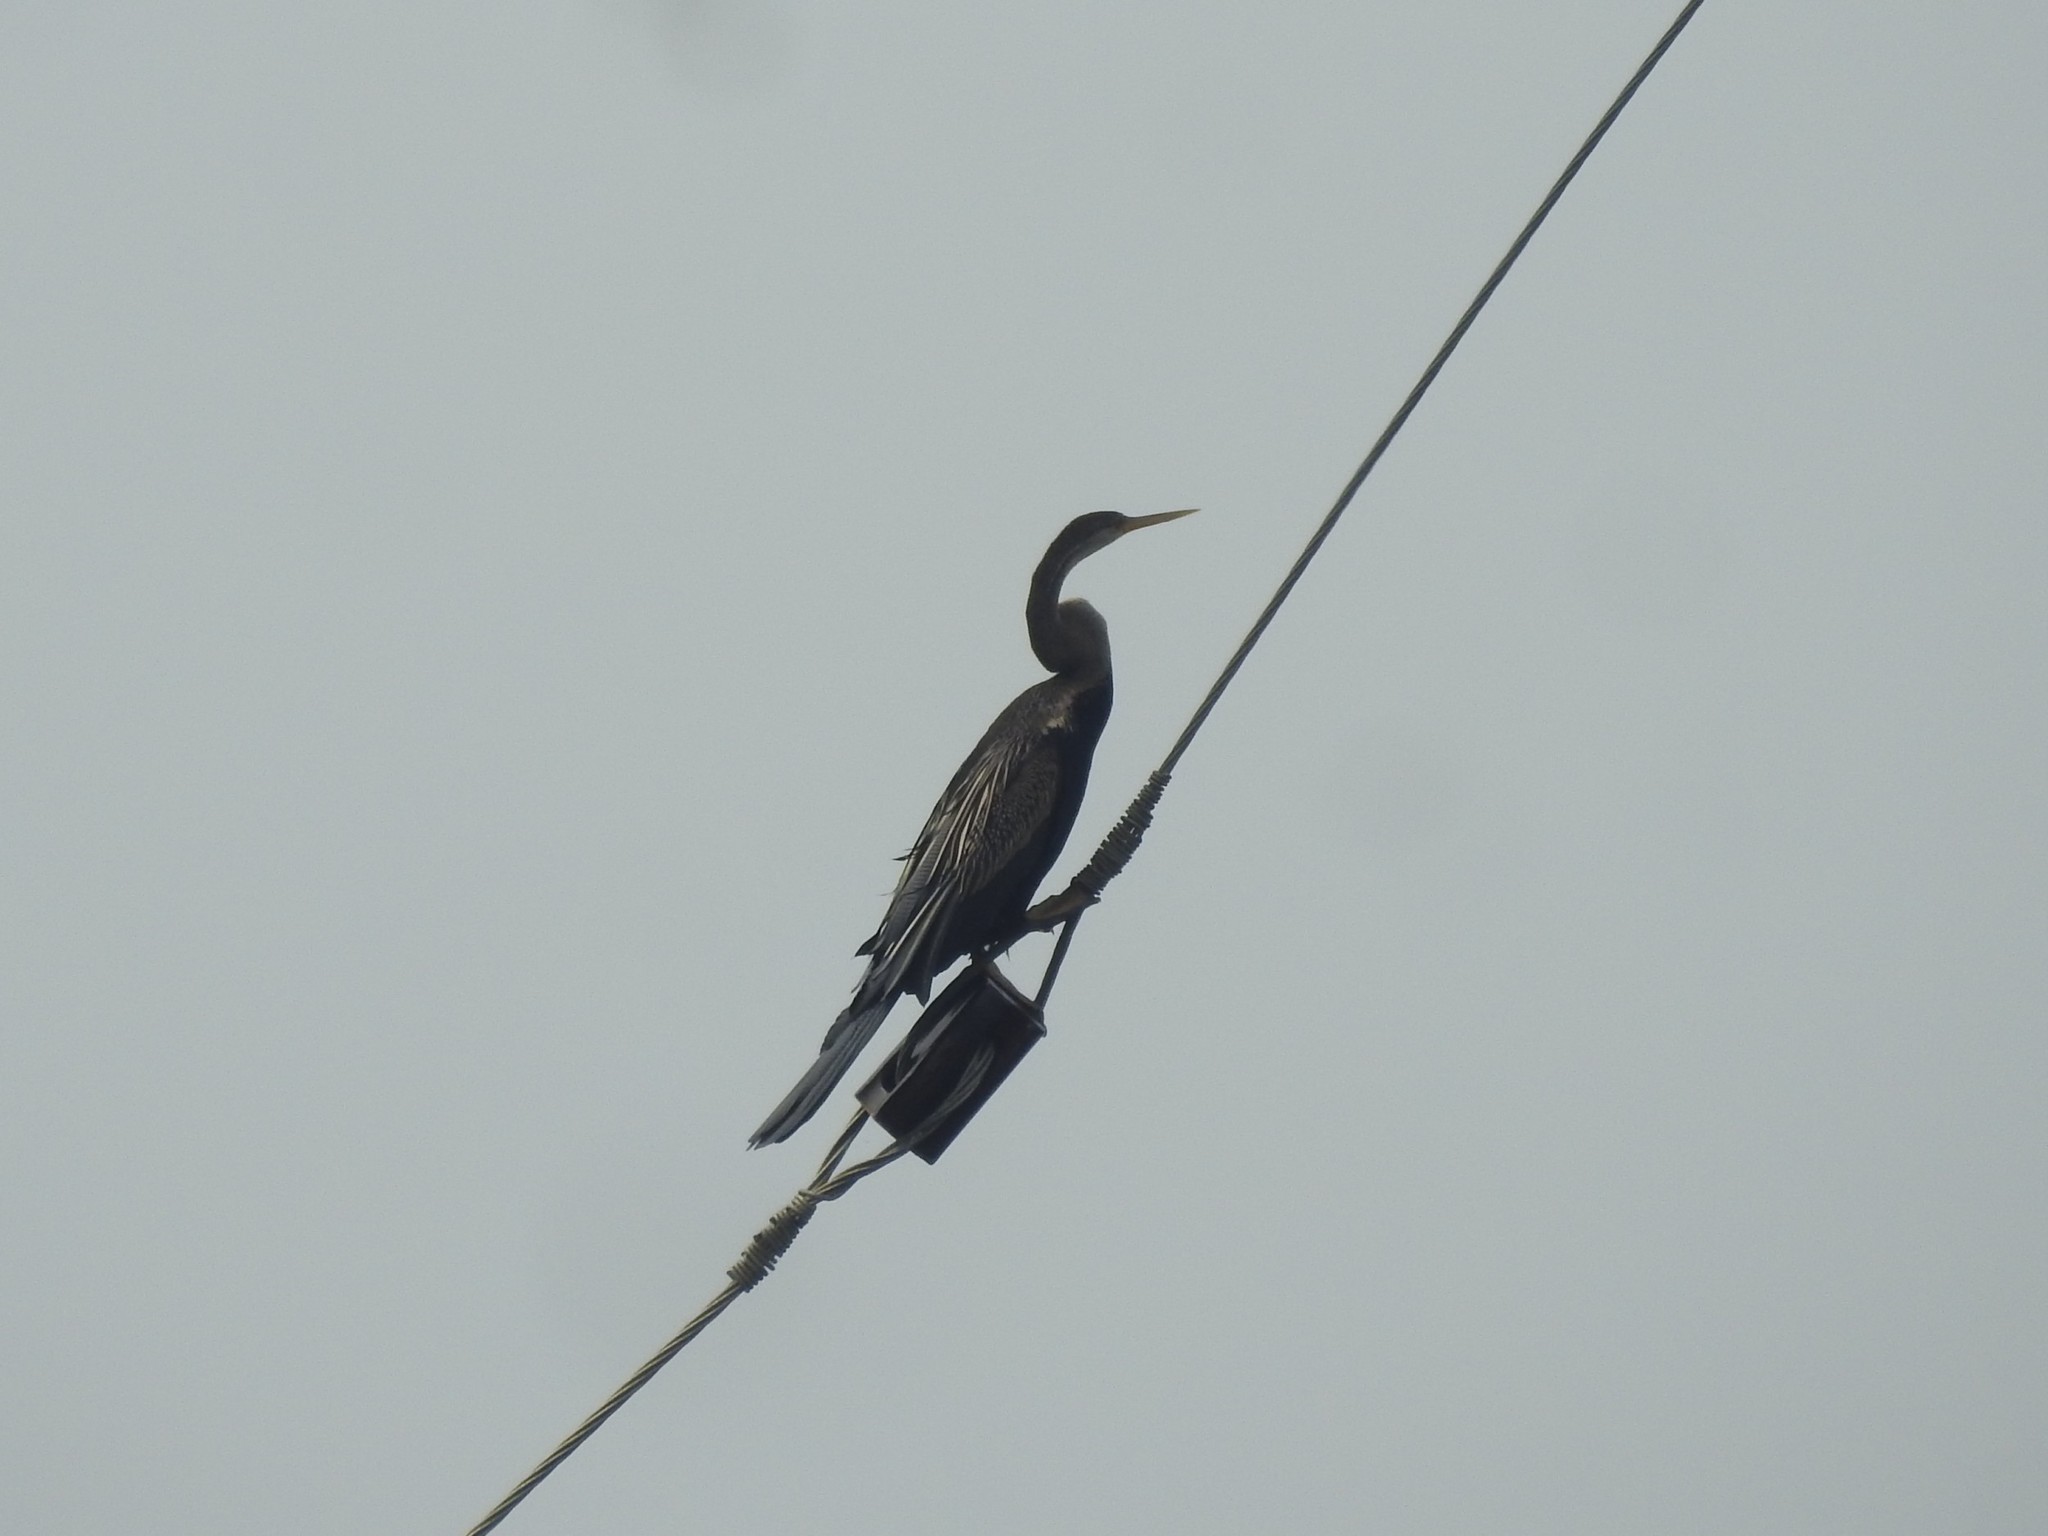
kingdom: Animalia
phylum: Chordata
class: Aves
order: Suliformes
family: Anhingidae
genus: Anhinga
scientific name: Anhinga melanogaster
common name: Oriental darter
